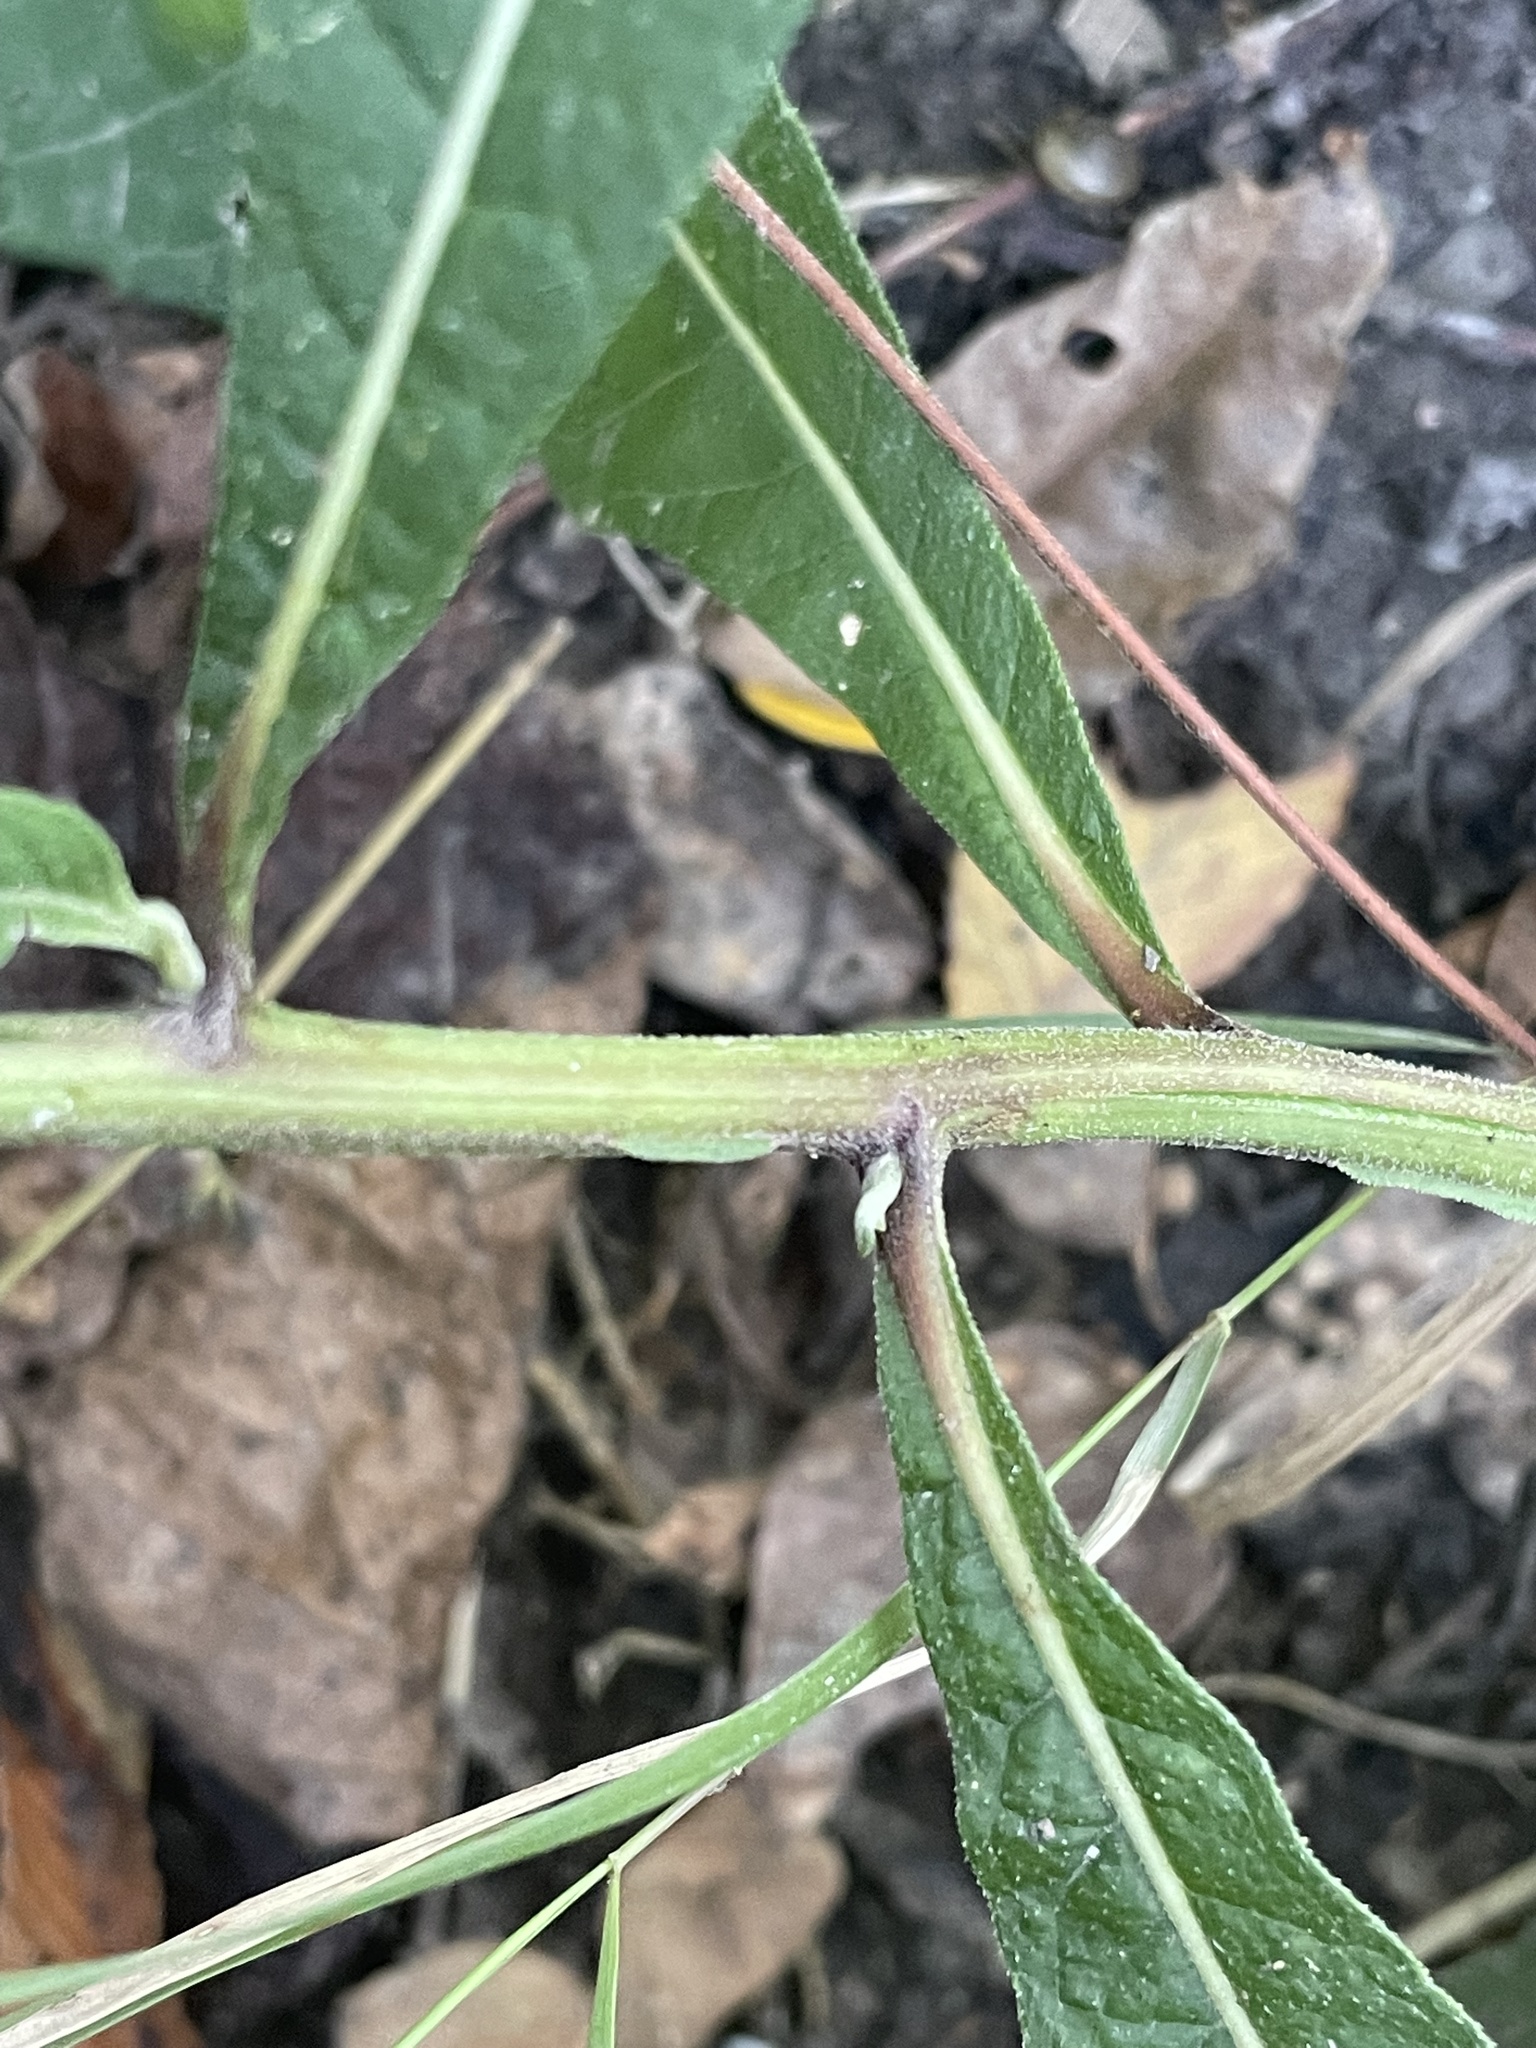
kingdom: Plantae
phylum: Tracheophyta
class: Magnoliopsida
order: Asterales
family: Asteraceae
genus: Verbesina
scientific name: Verbesina alternifolia
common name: Wingstem
